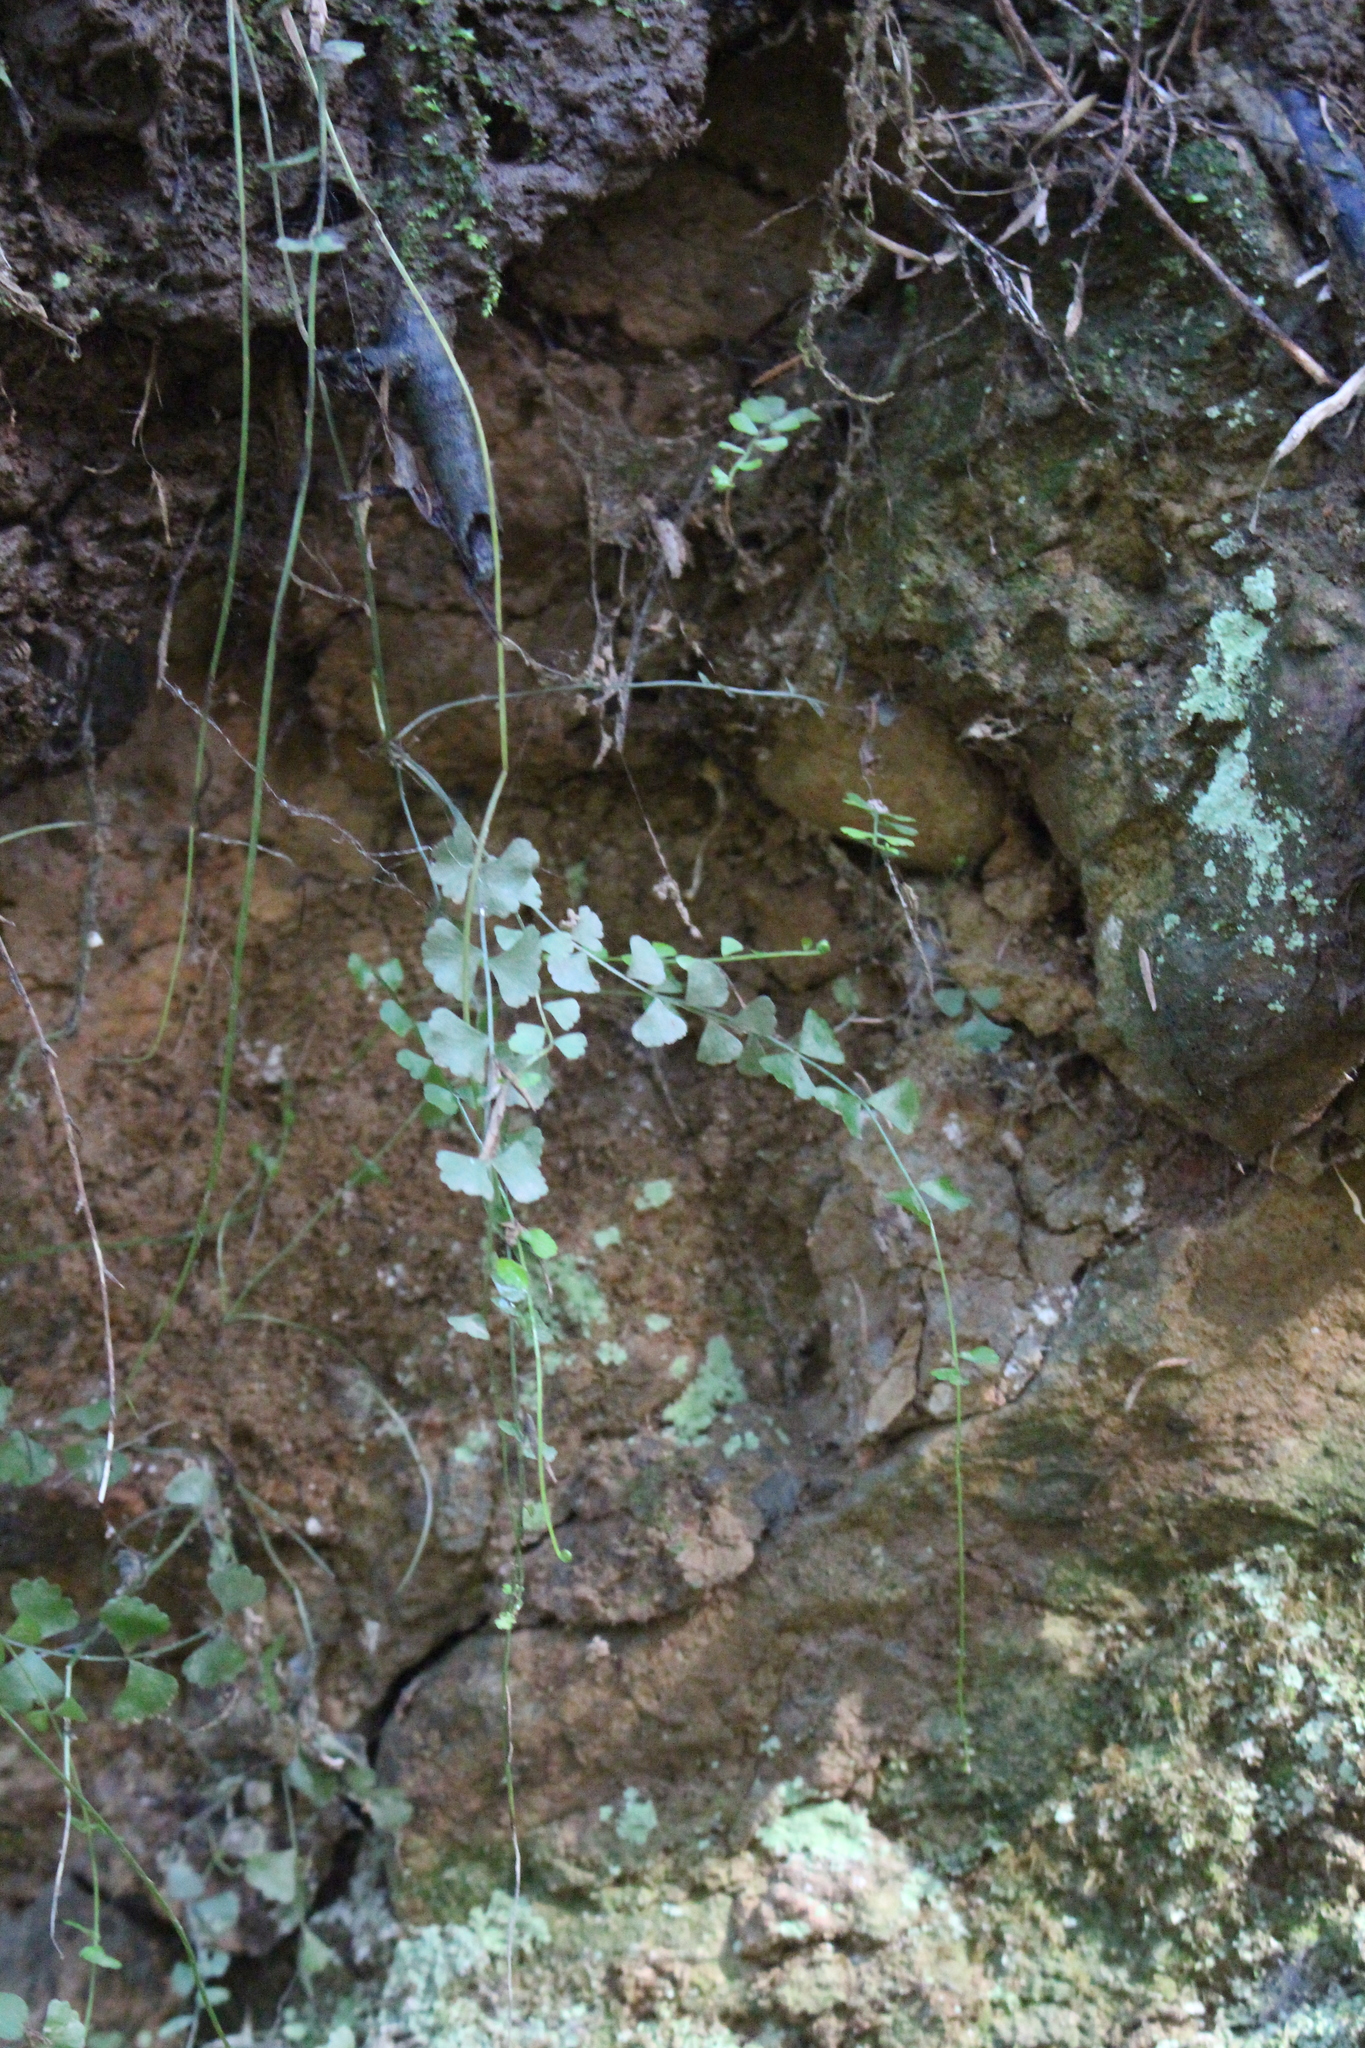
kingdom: Plantae
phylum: Tracheophyta
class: Polypodiopsida
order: Polypodiales
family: Aspleniaceae
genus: Asplenium
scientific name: Asplenium flabellifolium
